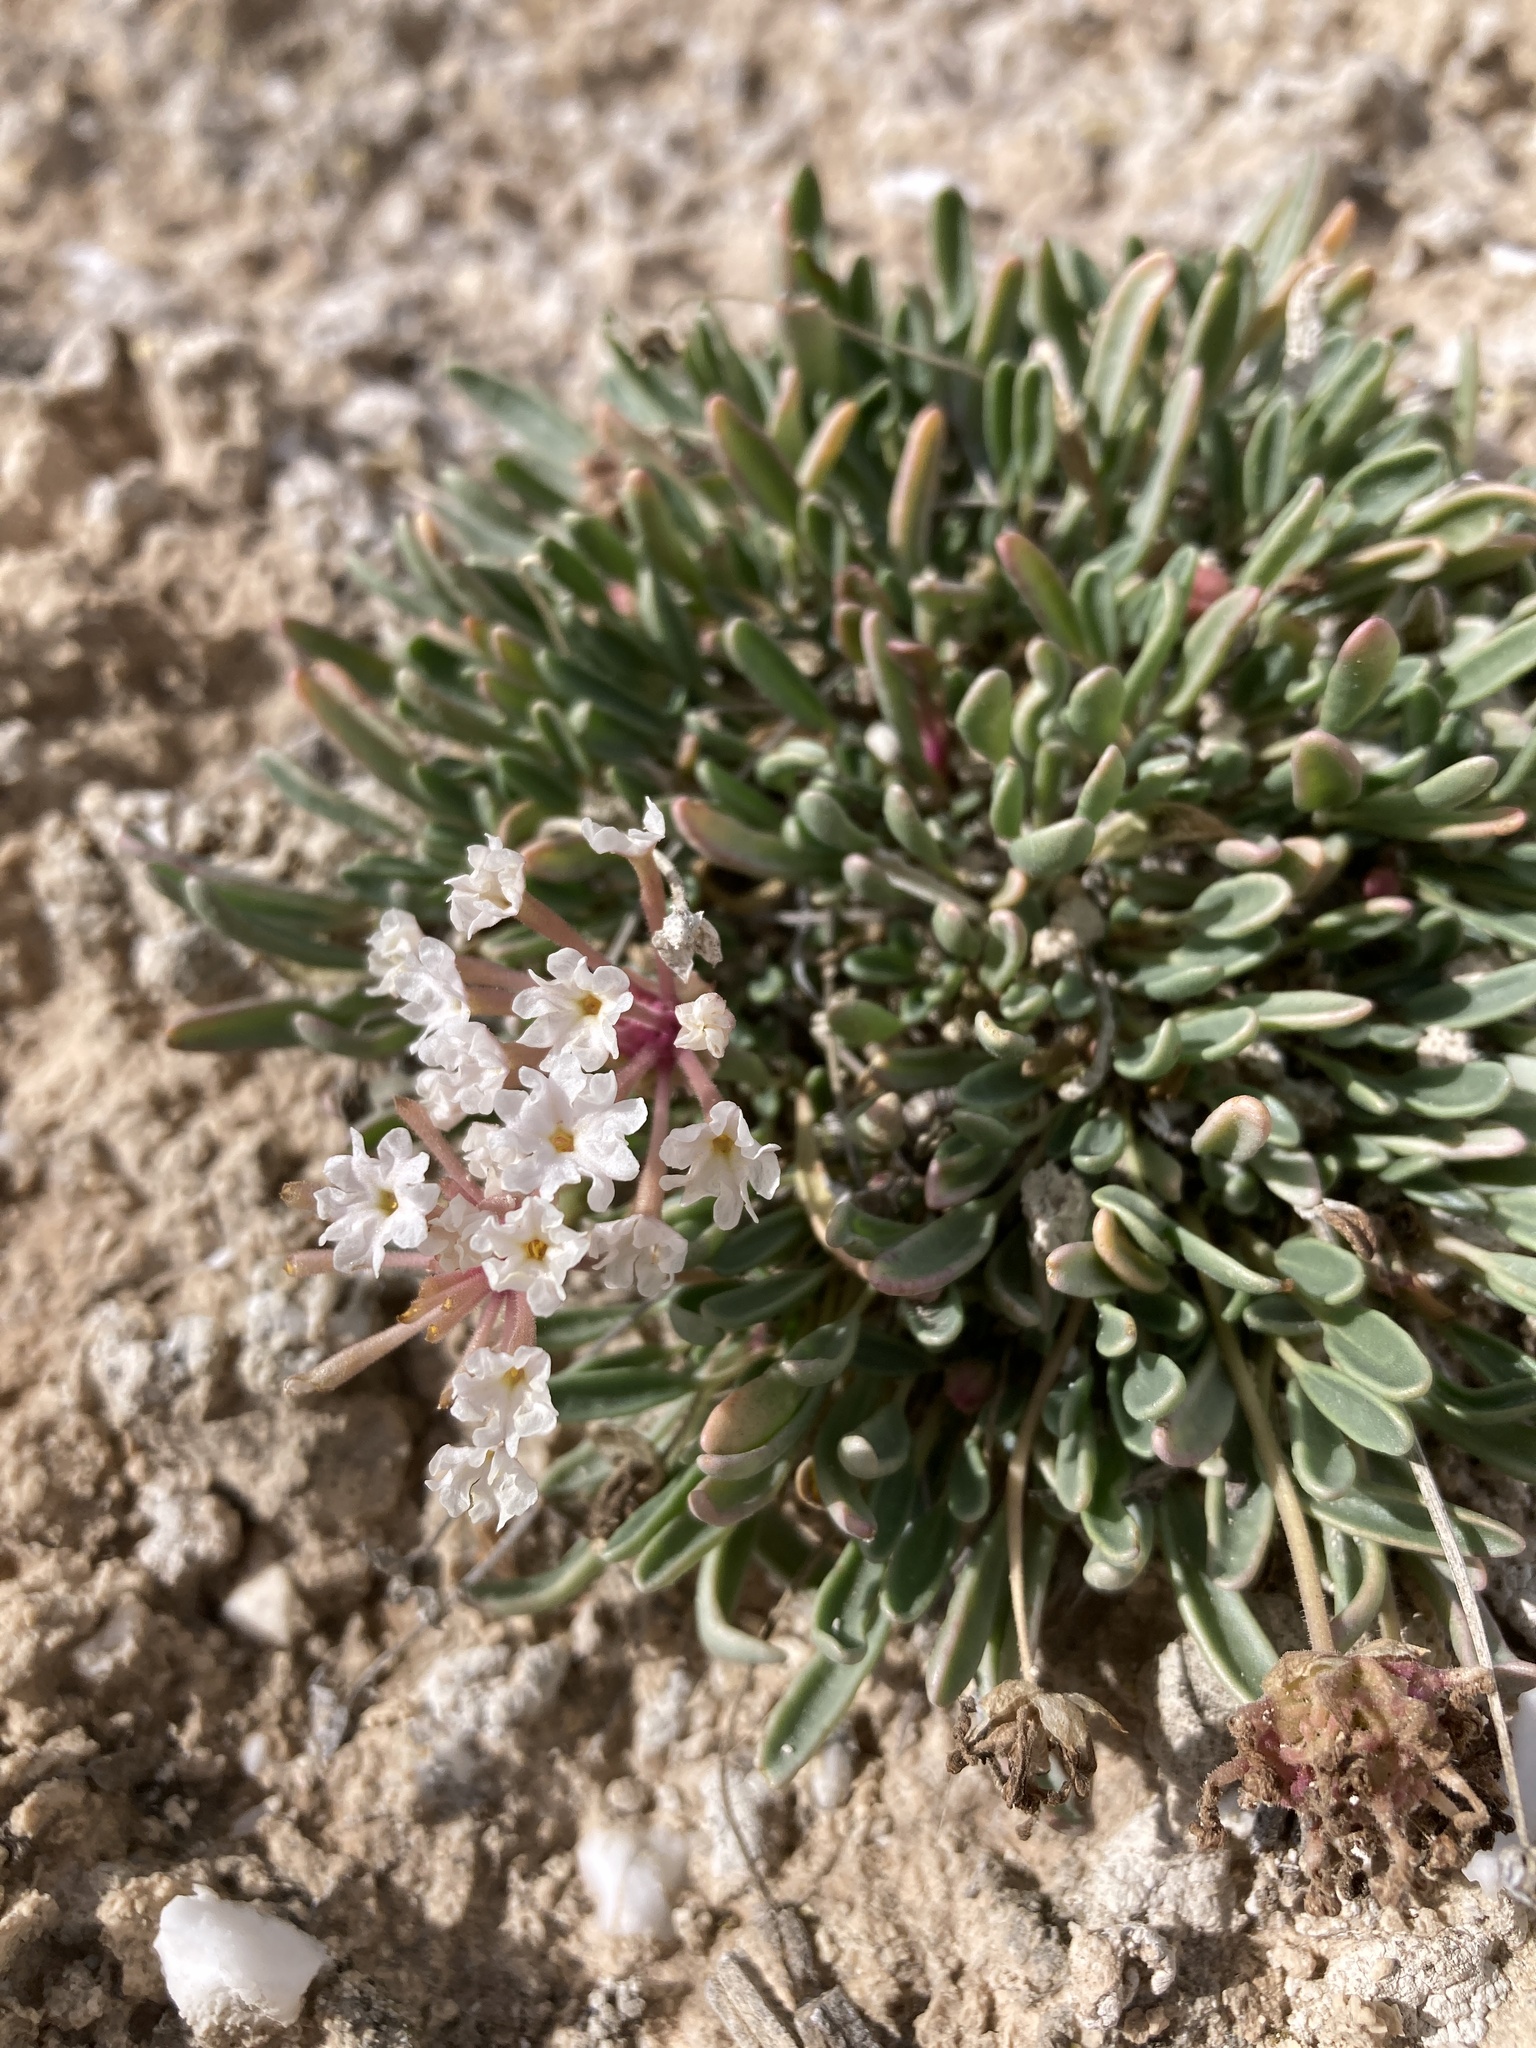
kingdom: Plantae
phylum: Tracheophyta
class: Magnoliopsida
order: Caryophyllales
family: Nyctaginaceae
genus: Abronia
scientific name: Abronia bigelovii
